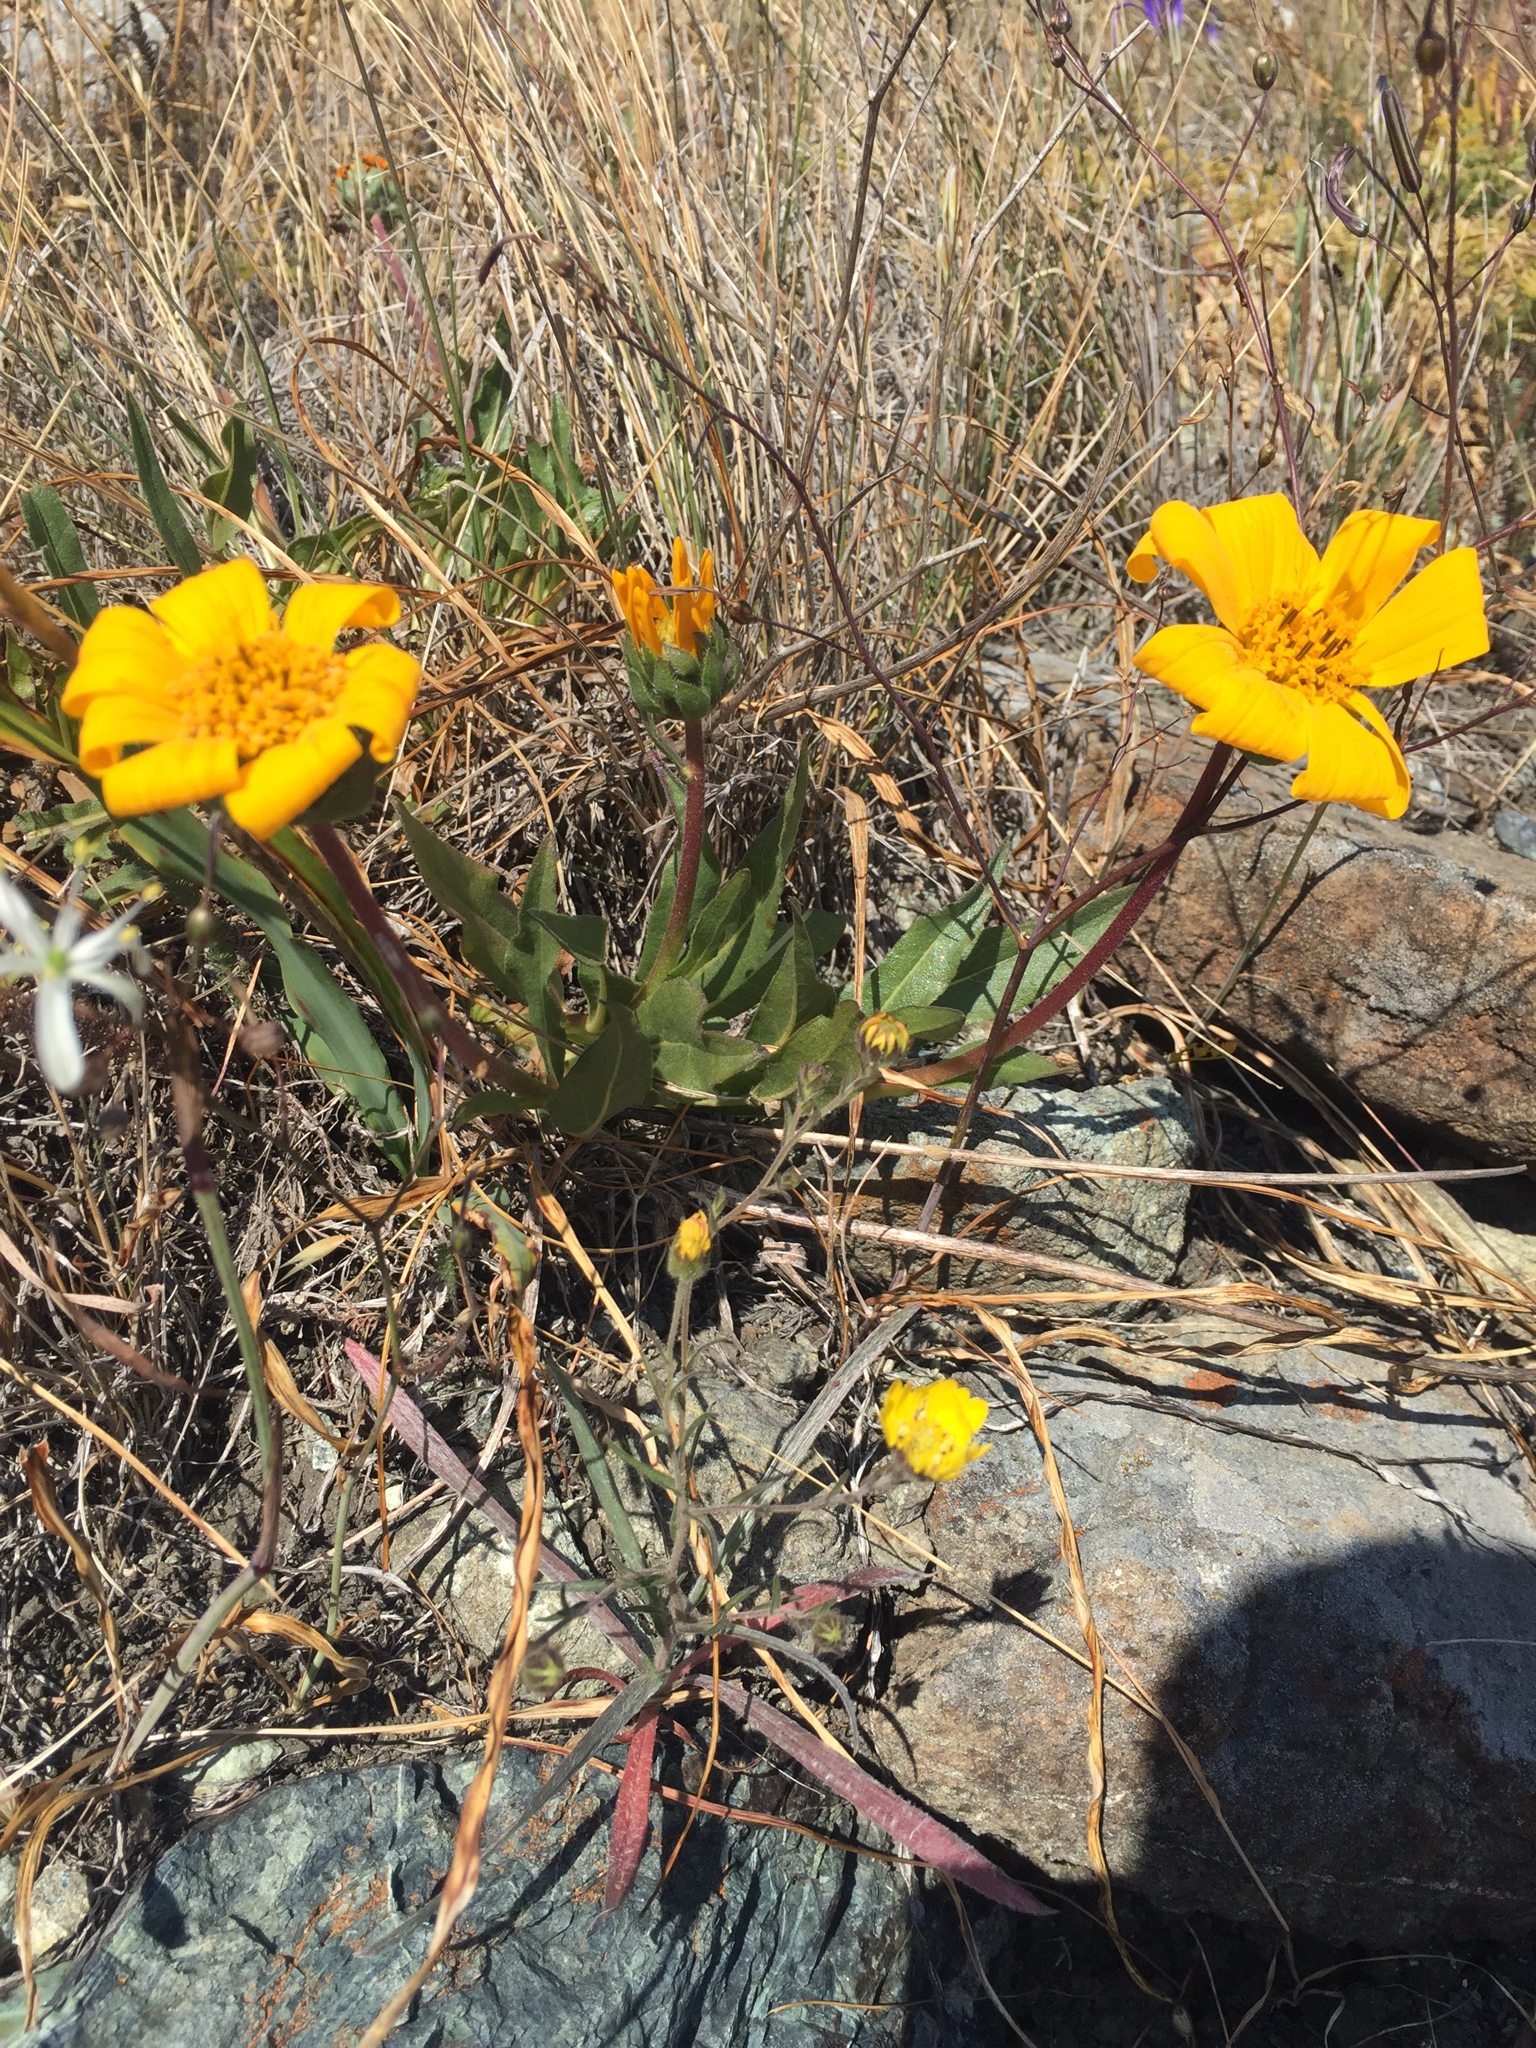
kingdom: Plantae
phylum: Tracheophyta
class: Magnoliopsida
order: Asterales
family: Asteraceae
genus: Wyethia
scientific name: Wyethia angustifolia
